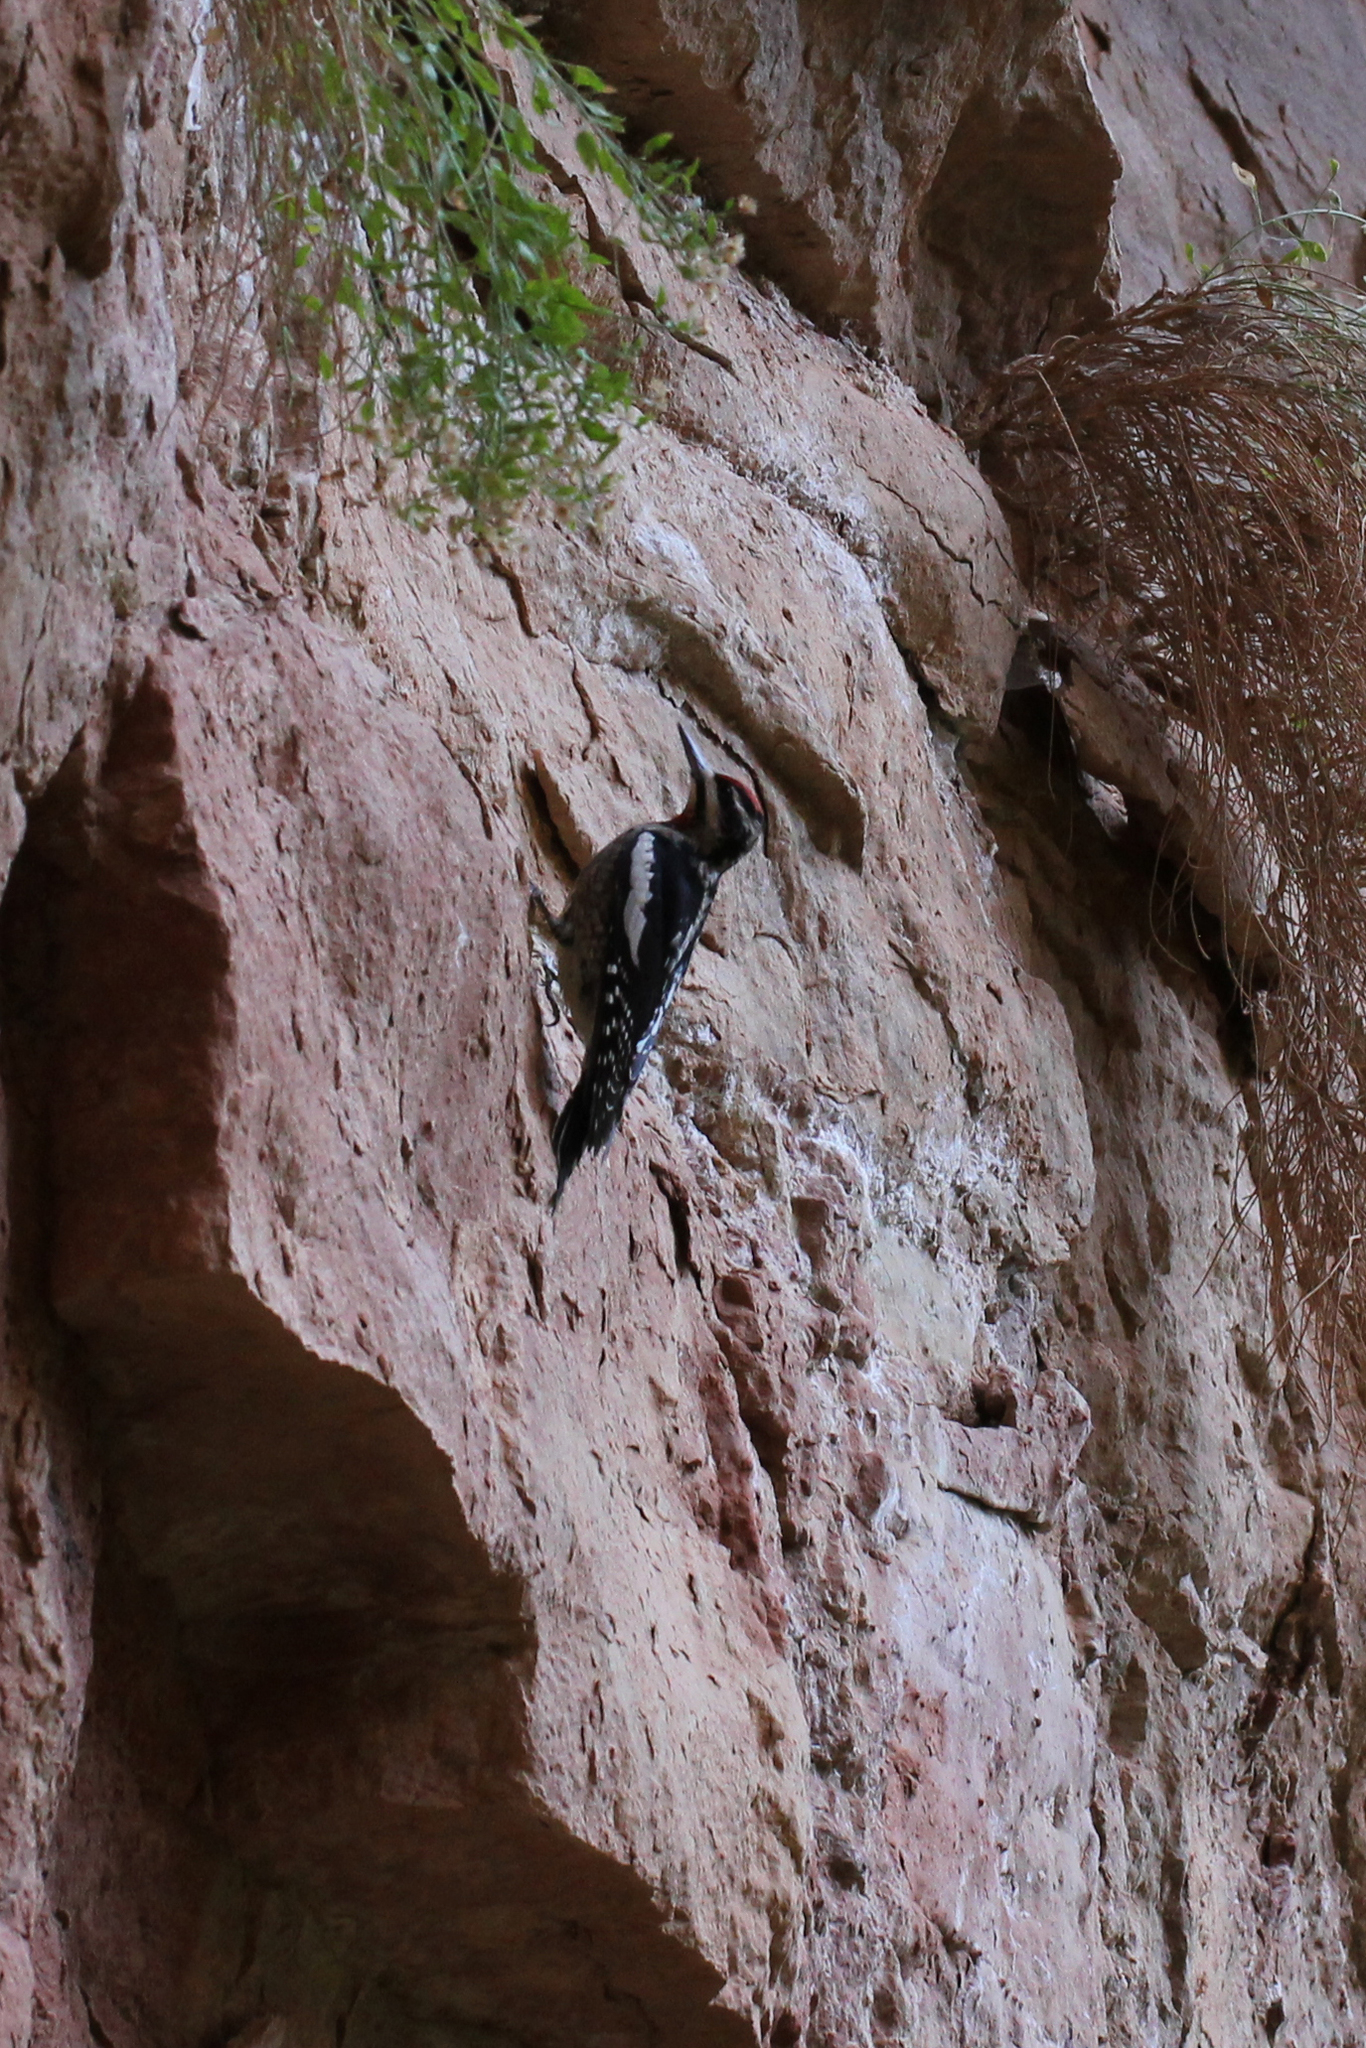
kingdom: Animalia
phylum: Chordata
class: Aves
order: Piciformes
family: Picidae
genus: Sphyrapicus
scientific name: Sphyrapicus nuchalis
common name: Red-naped sapsucker
